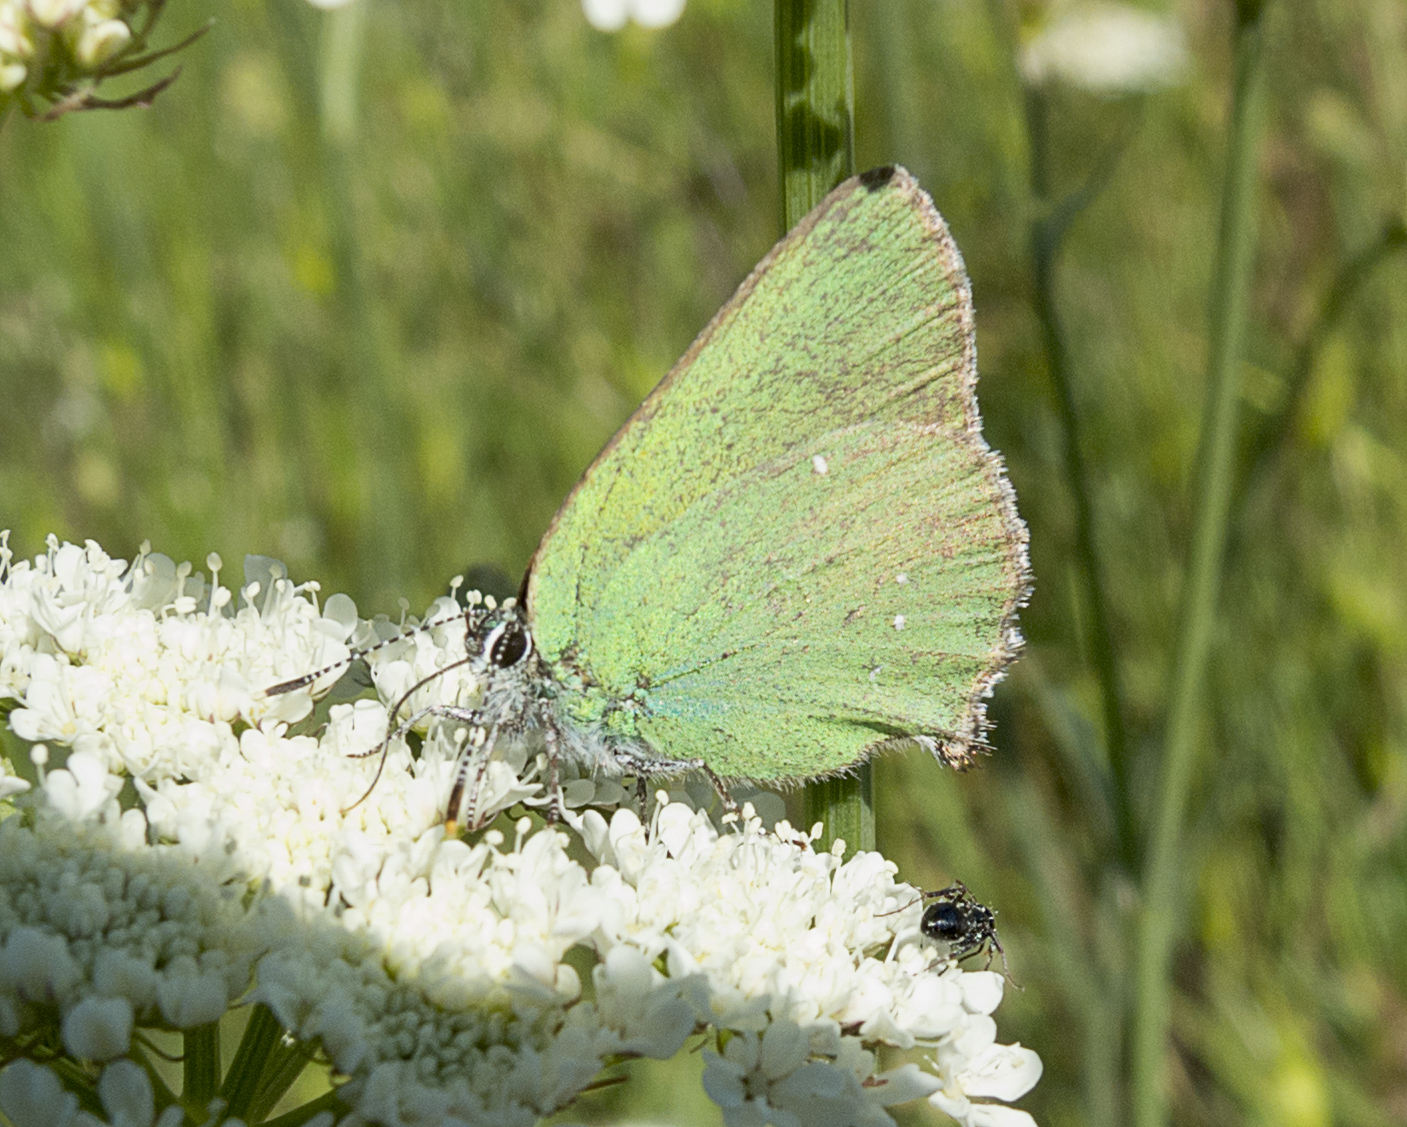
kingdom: Animalia
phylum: Arthropoda
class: Insecta
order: Lepidoptera
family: Lycaenidae
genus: Callophrys
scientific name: Callophrys rubi
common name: Green hairstreak
